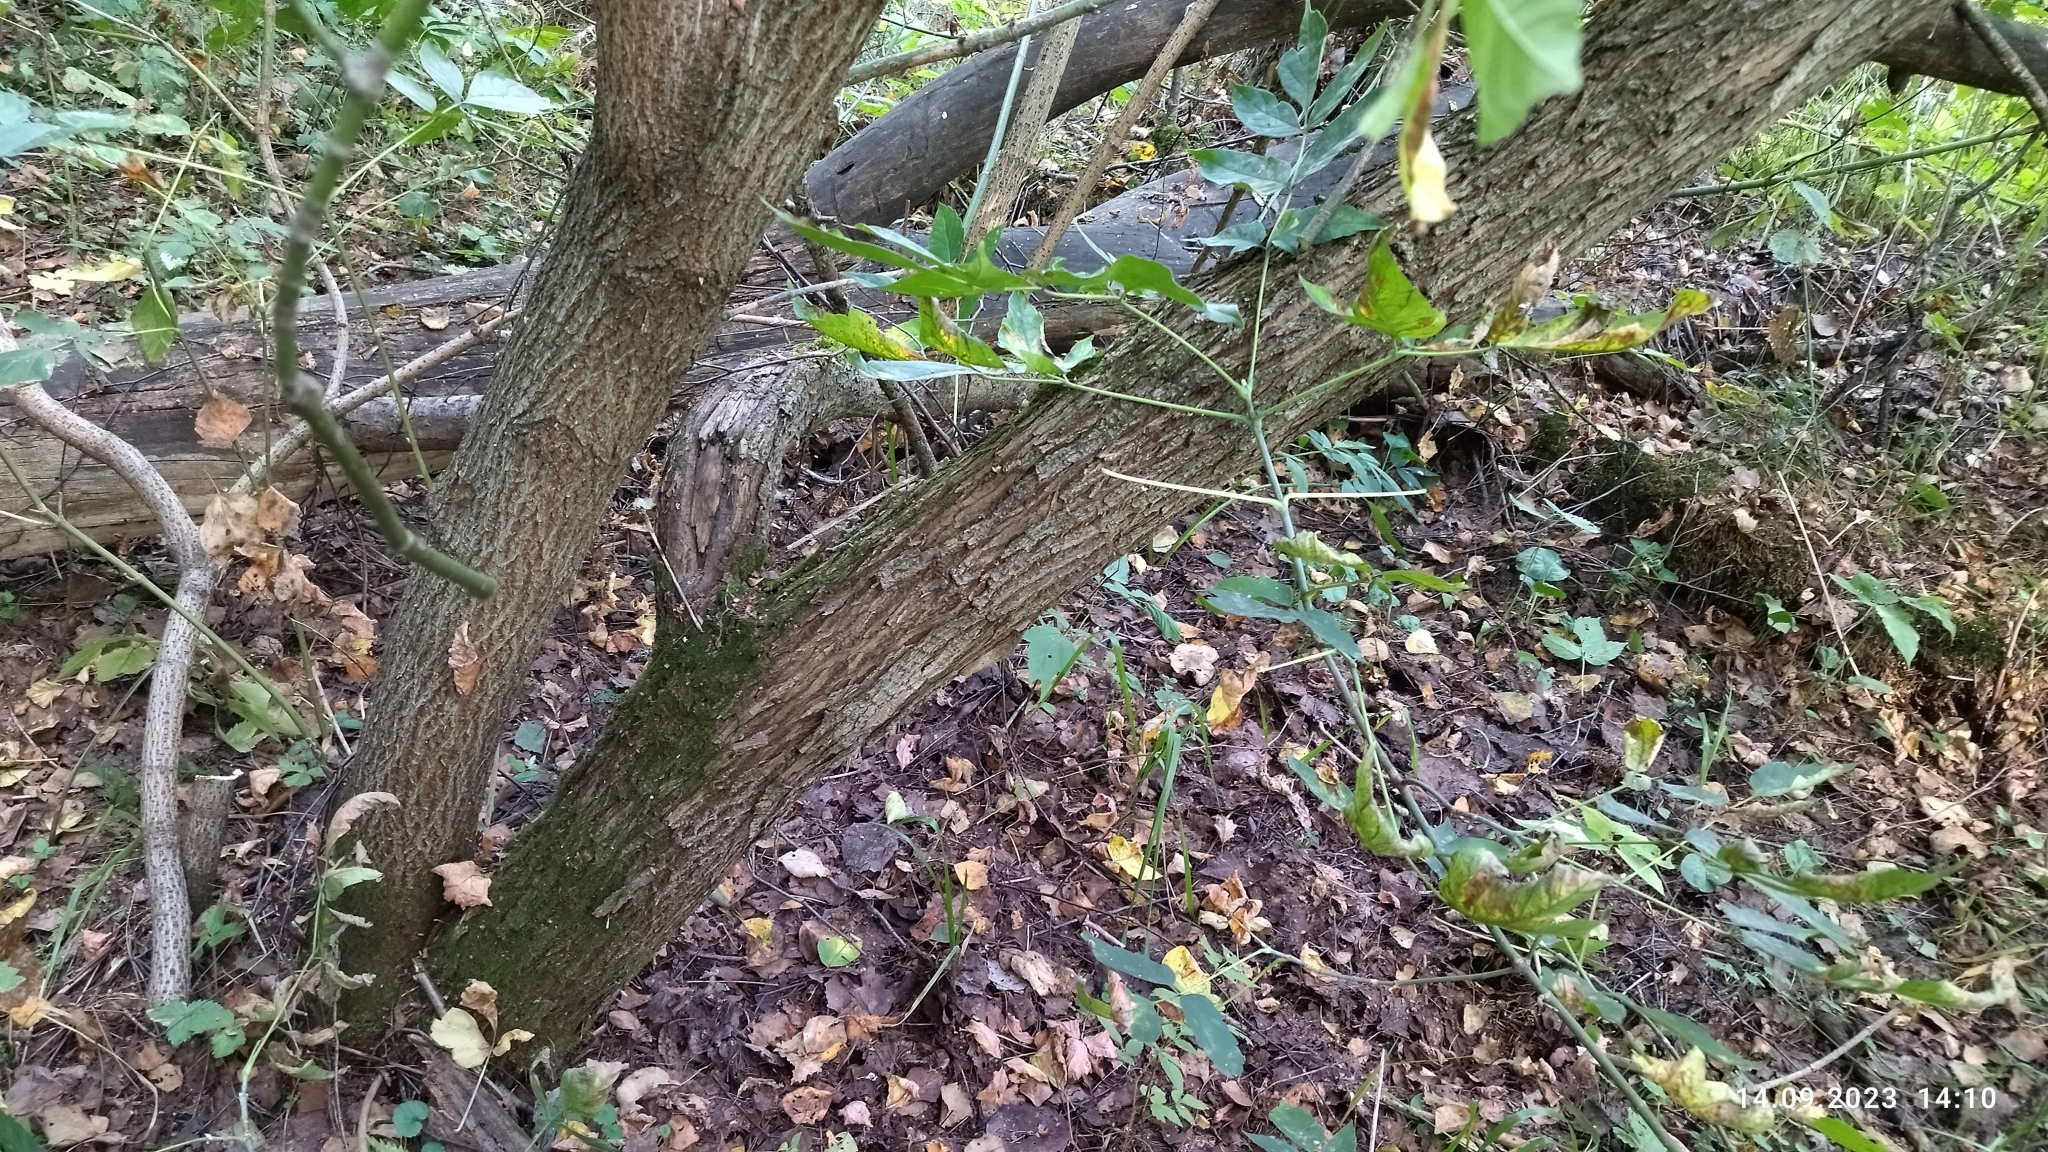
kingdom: Plantae
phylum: Tracheophyta
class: Magnoliopsida
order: Sapindales
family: Sapindaceae
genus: Acer
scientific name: Acer negundo
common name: Ashleaf maple
